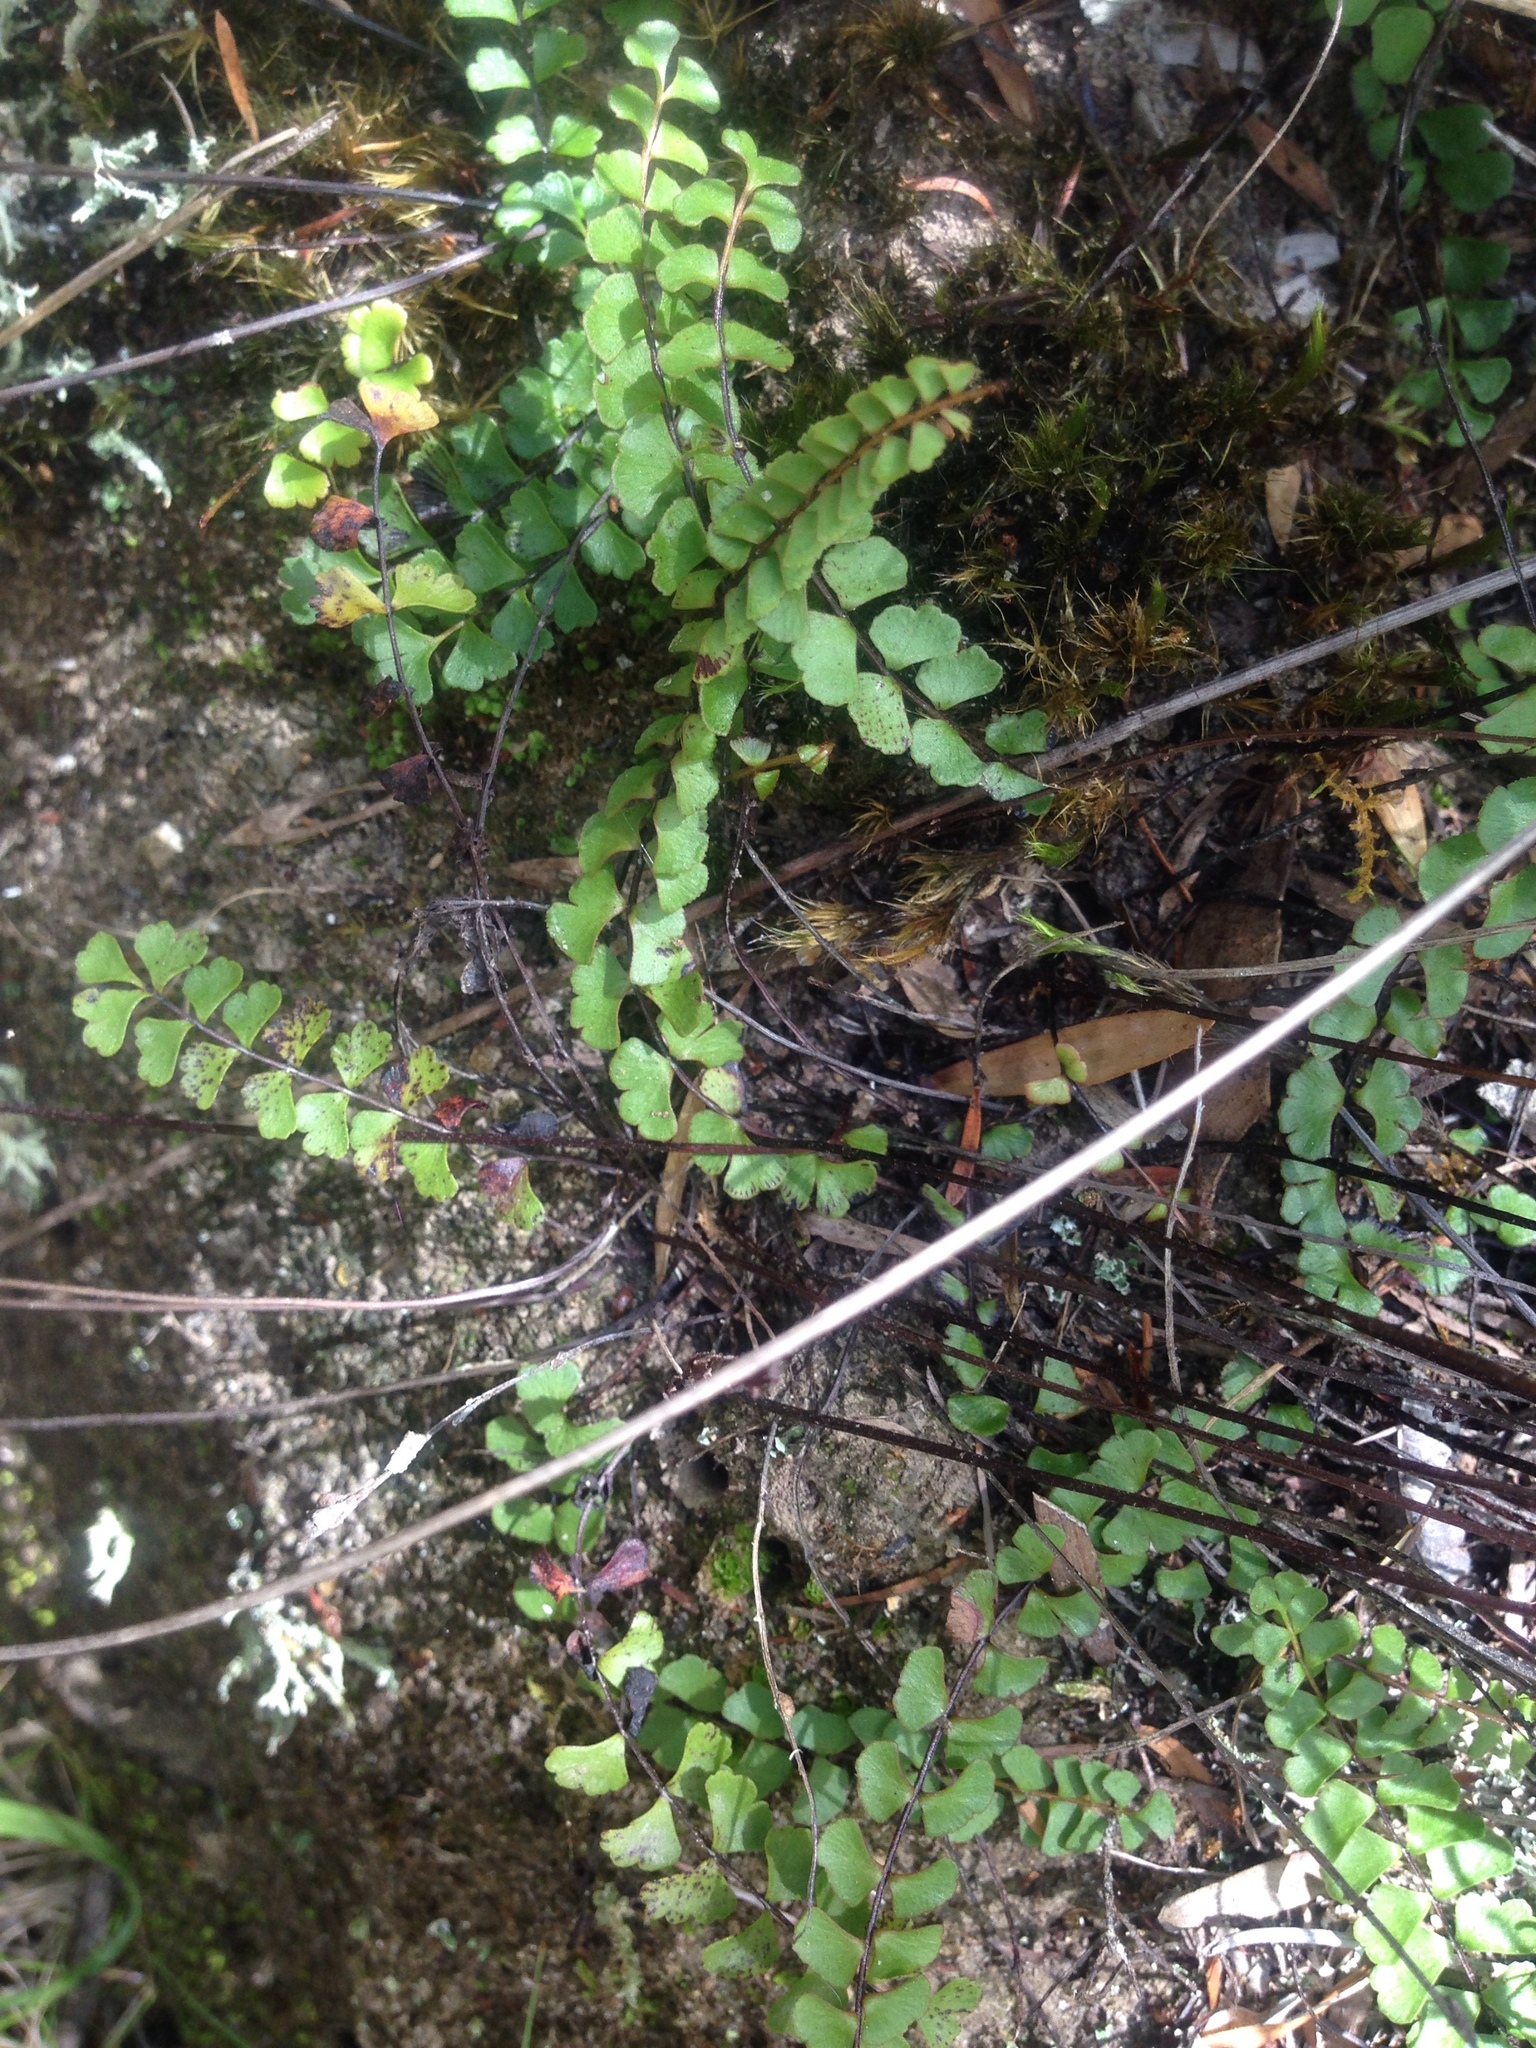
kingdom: Plantae
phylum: Tracheophyta
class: Polypodiopsida
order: Polypodiales
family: Lindsaeaceae
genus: Lindsaea
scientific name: Lindsaea linearis
